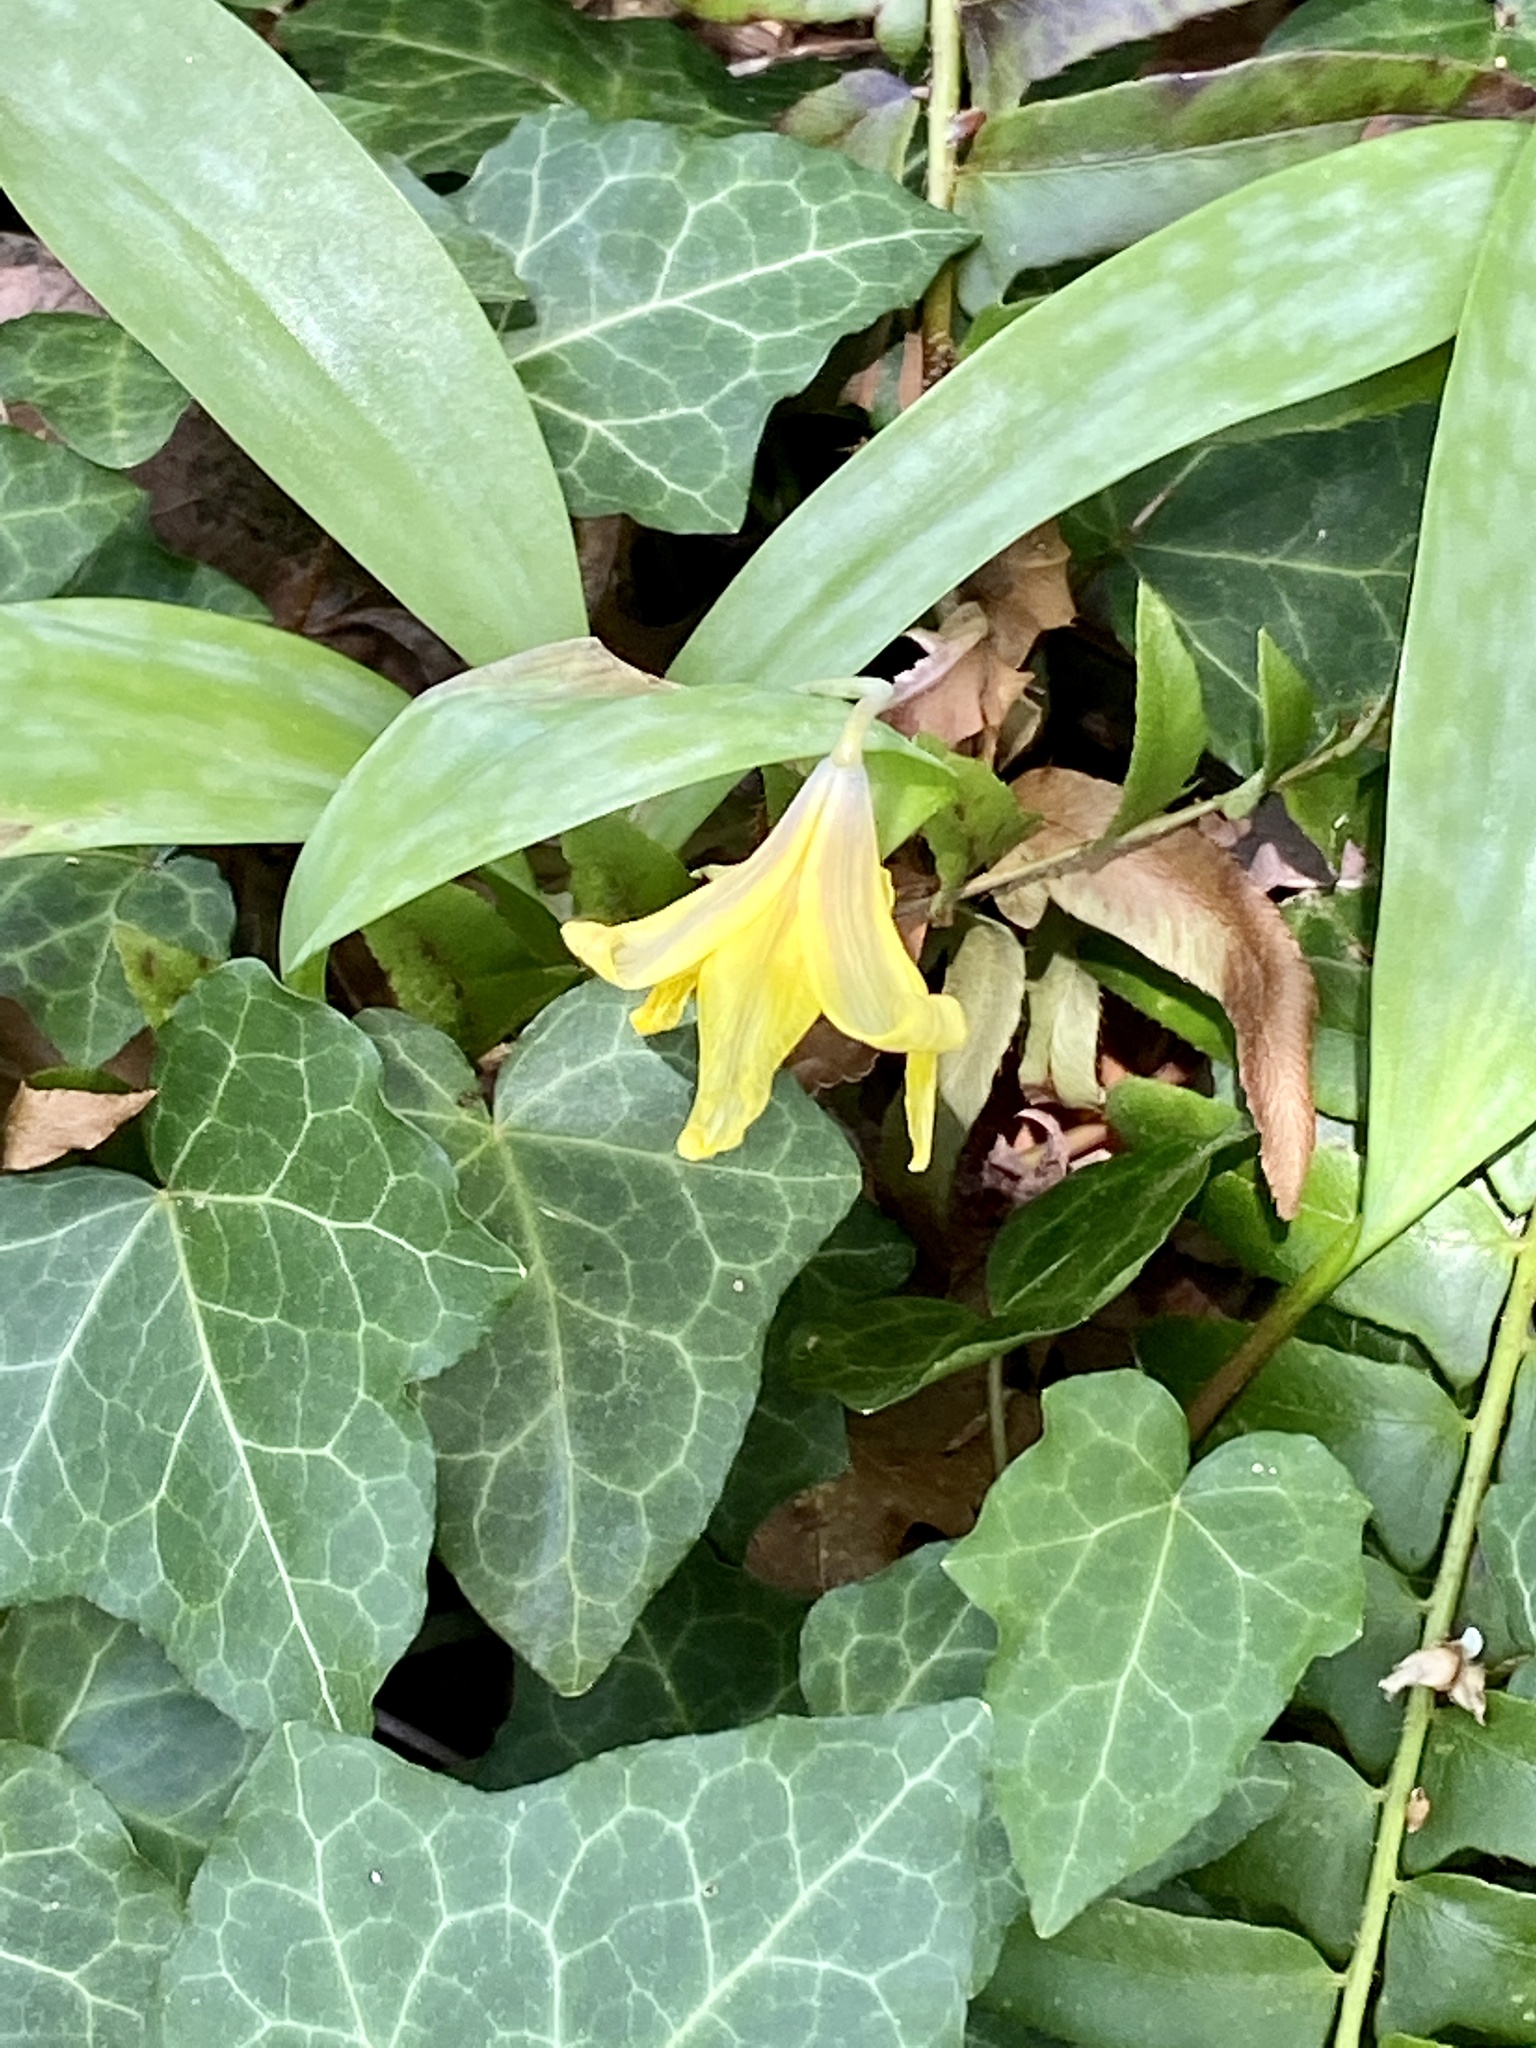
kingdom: Plantae
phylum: Tracheophyta
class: Liliopsida
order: Liliales
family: Liliaceae
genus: Erythronium
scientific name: Erythronium americanum
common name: Yellow adder's-tongue
